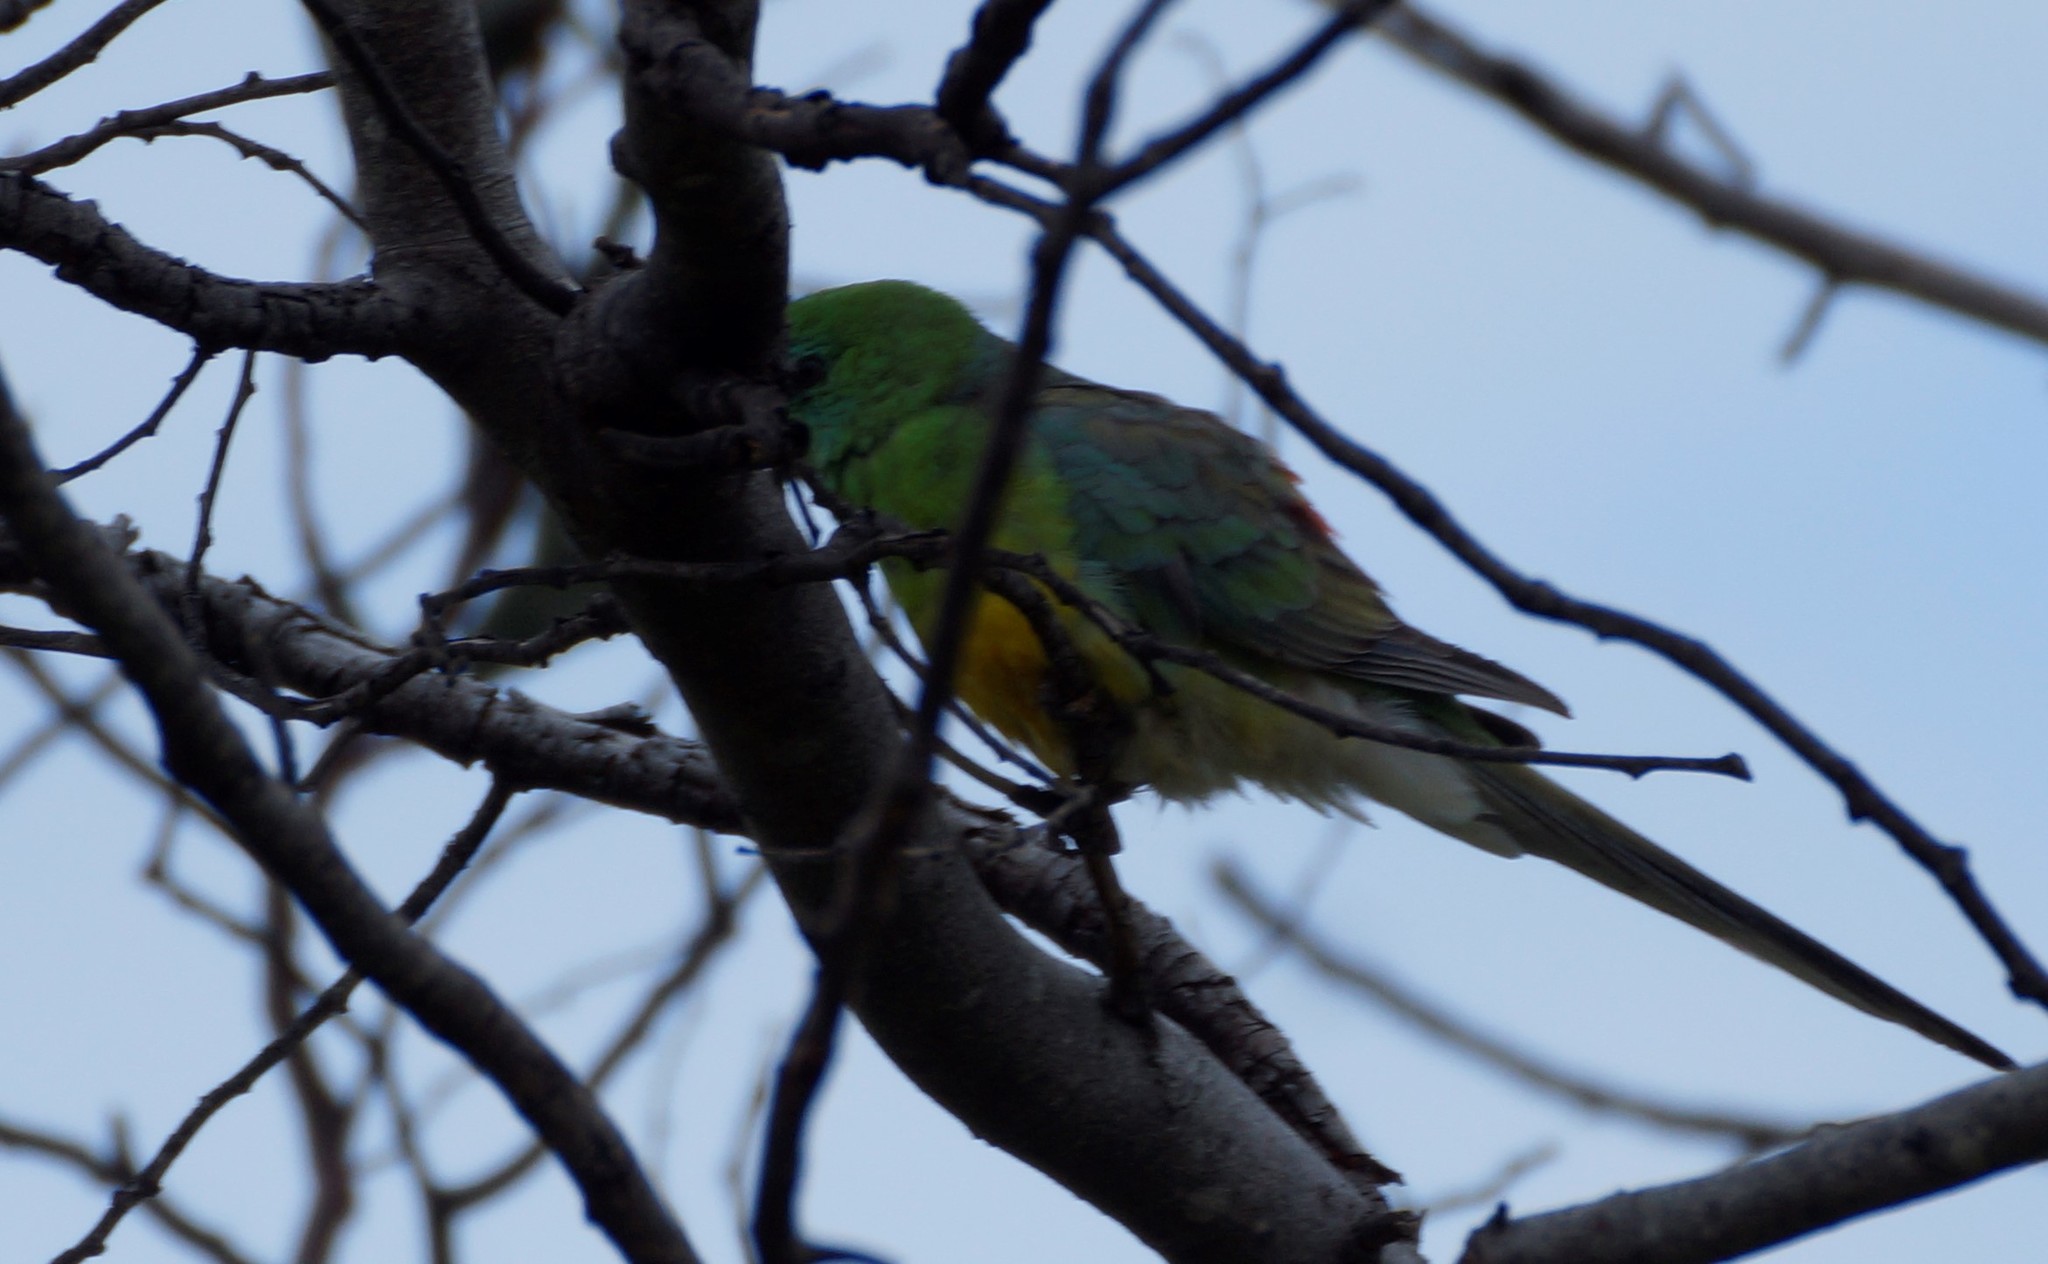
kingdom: Animalia
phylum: Chordata
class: Aves
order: Psittaciformes
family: Psittacidae
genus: Psephotus
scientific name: Psephotus haematonotus
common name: Red-rumped parrot
